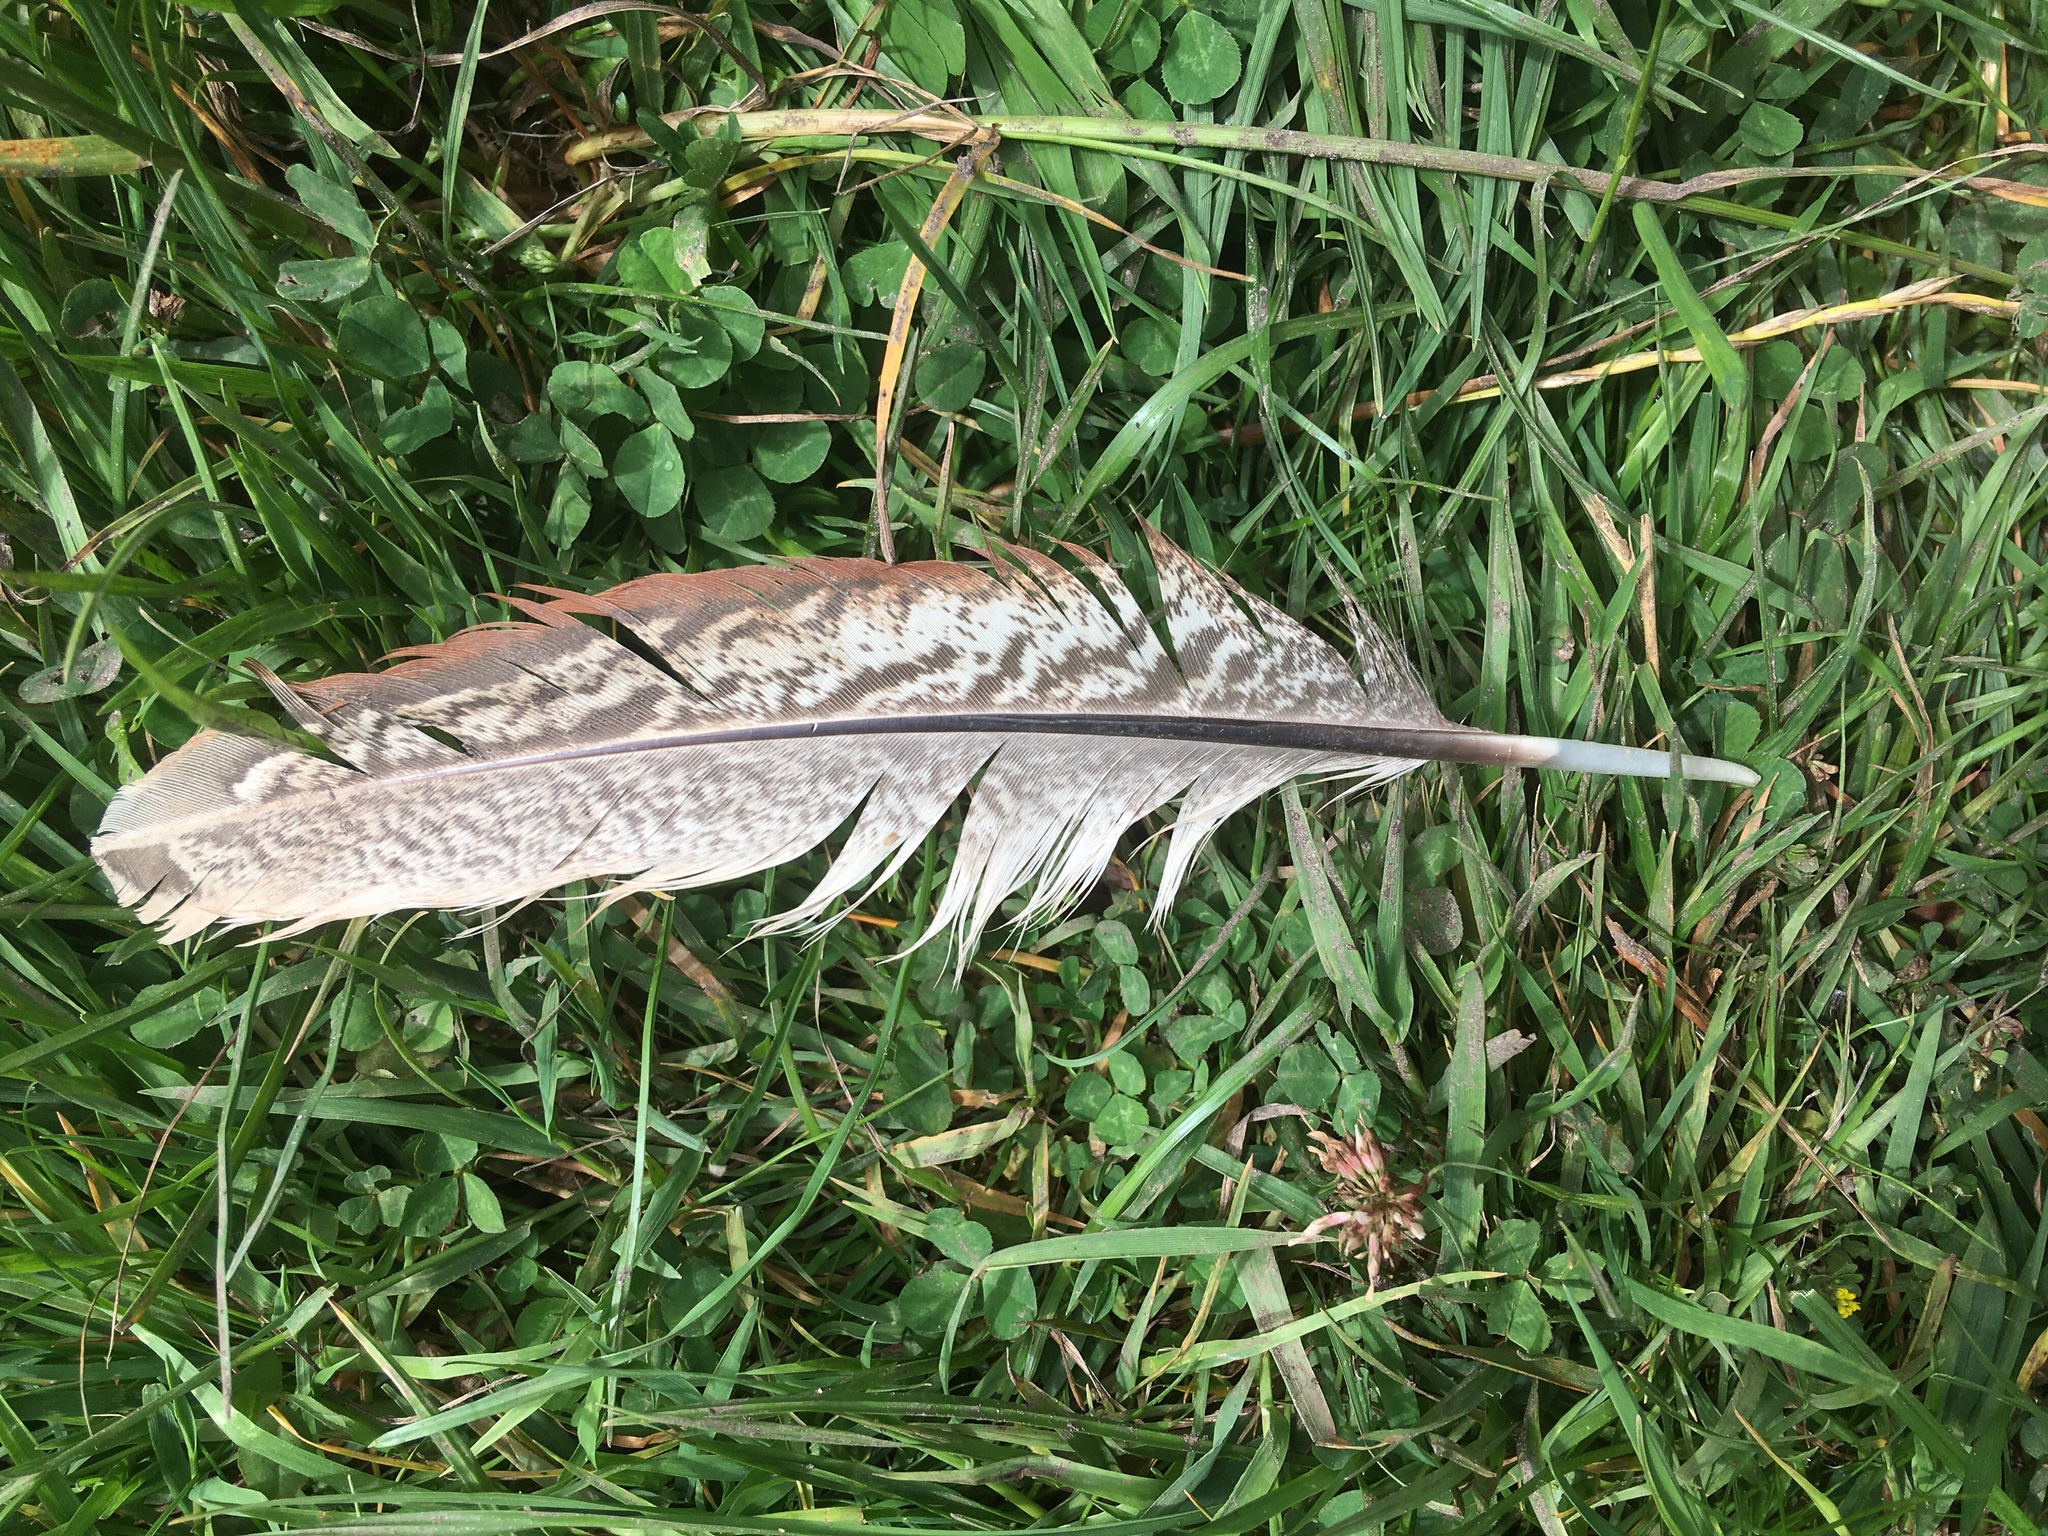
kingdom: Animalia
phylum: Chordata
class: Aves
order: Galliformes
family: Phasianidae
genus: Phasianus
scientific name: Phasianus colchicus
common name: Common pheasant
